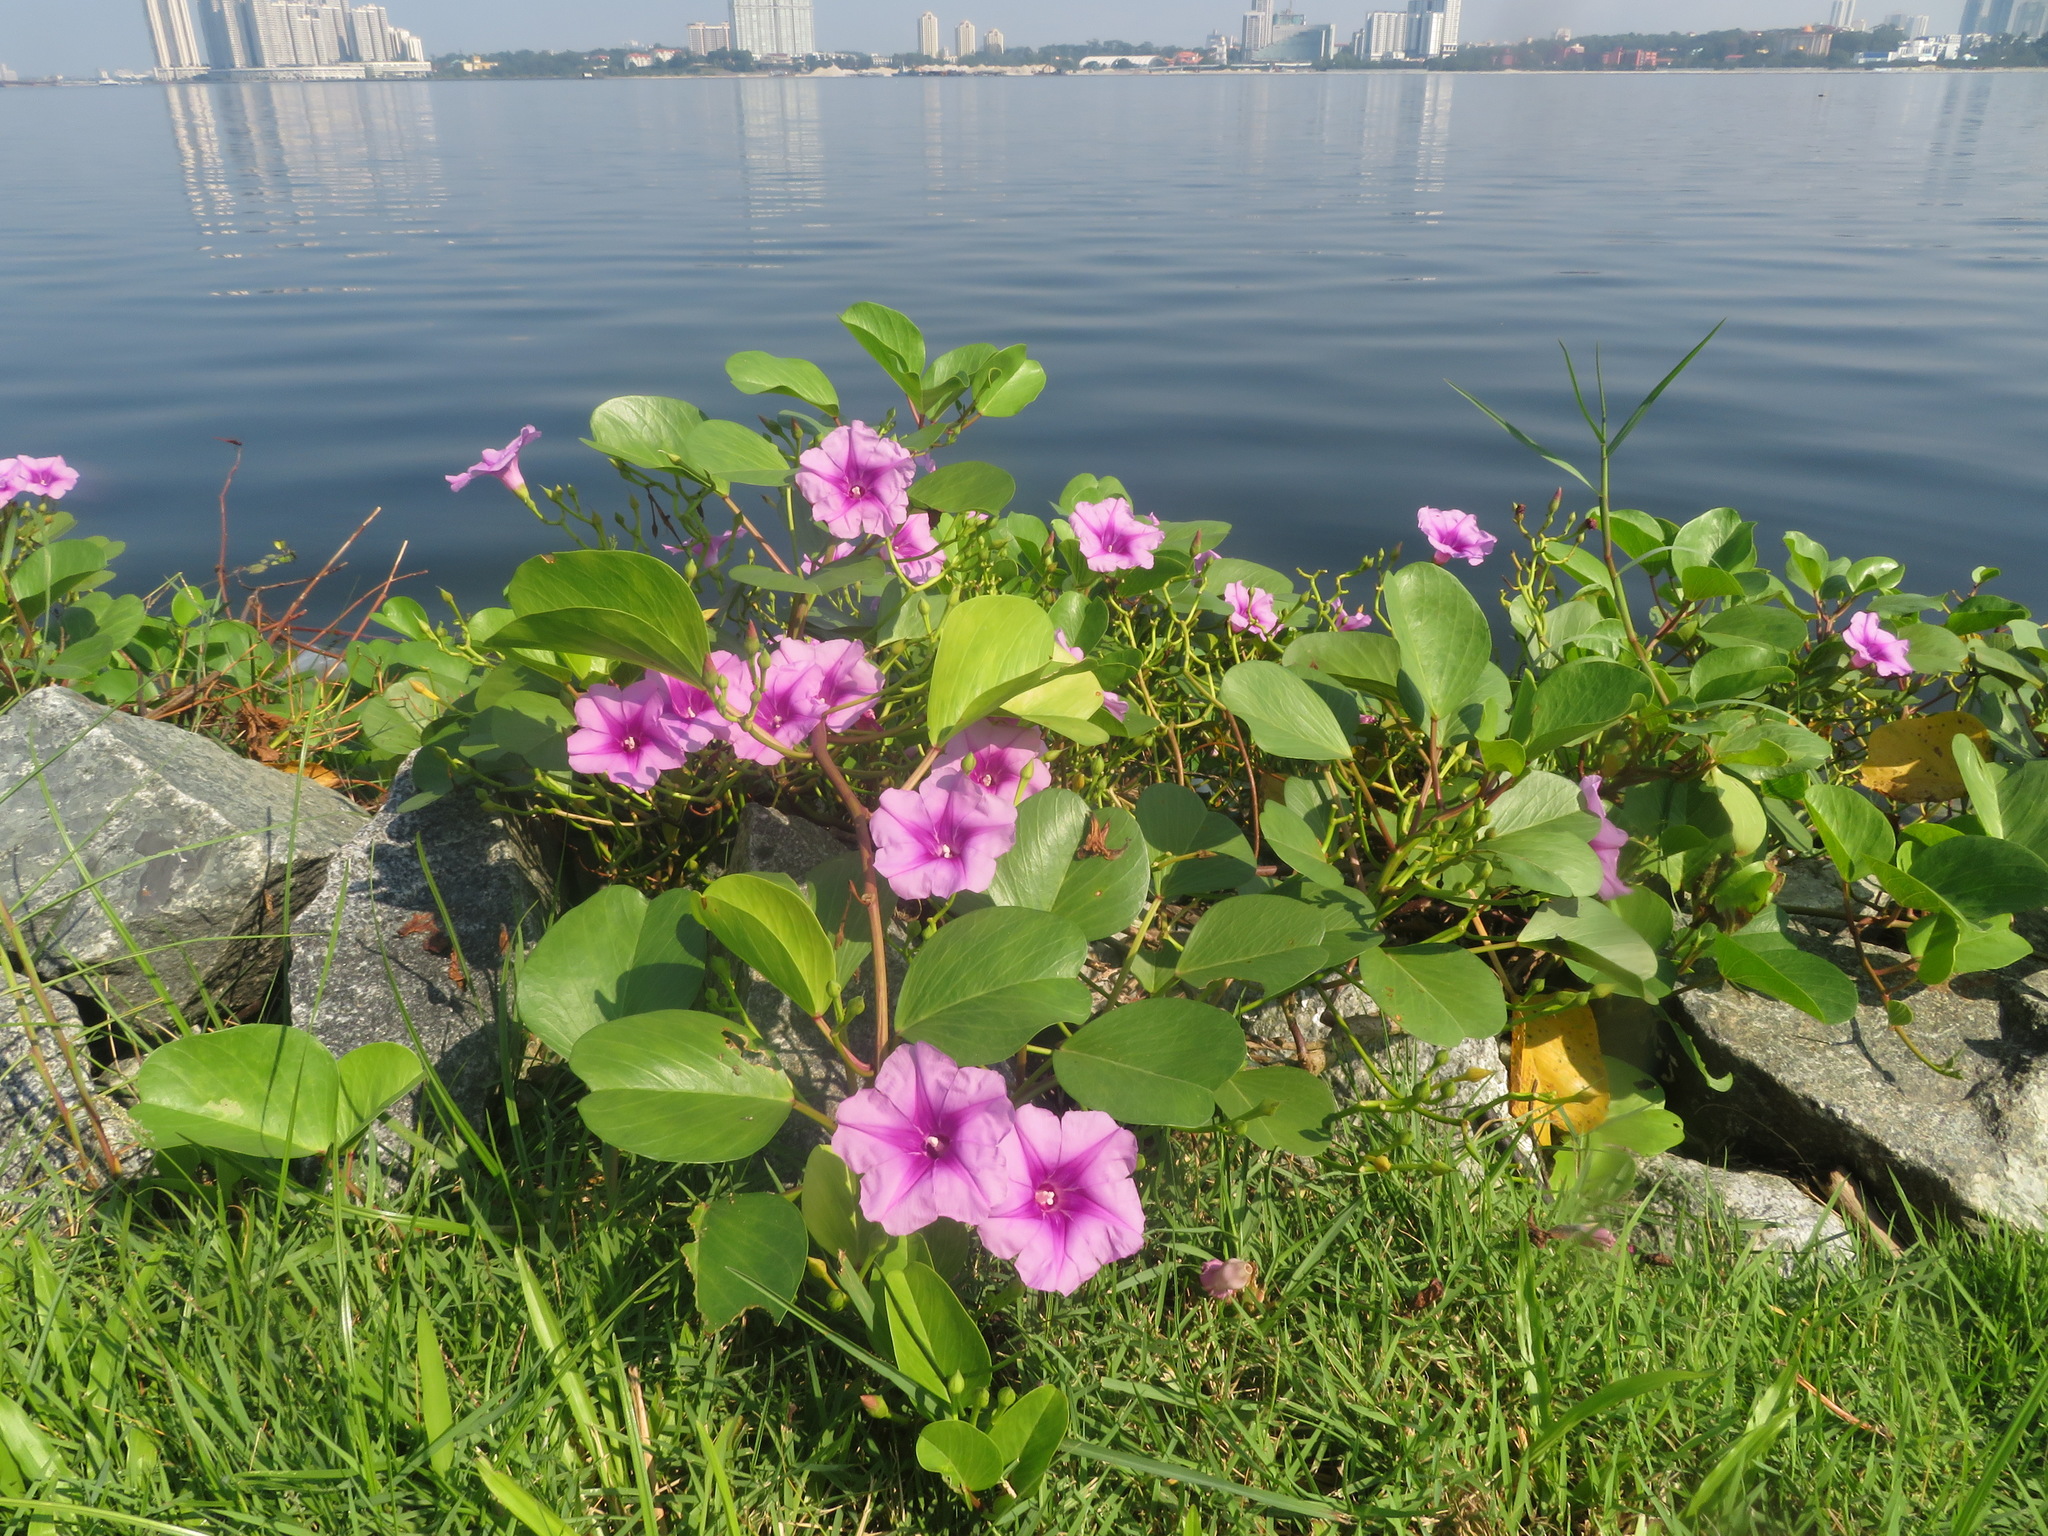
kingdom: Plantae
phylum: Tracheophyta
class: Magnoliopsida
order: Solanales
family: Convolvulaceae
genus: Ipomoea
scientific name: Ipomoea pes-caprae
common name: Beach morning glory
